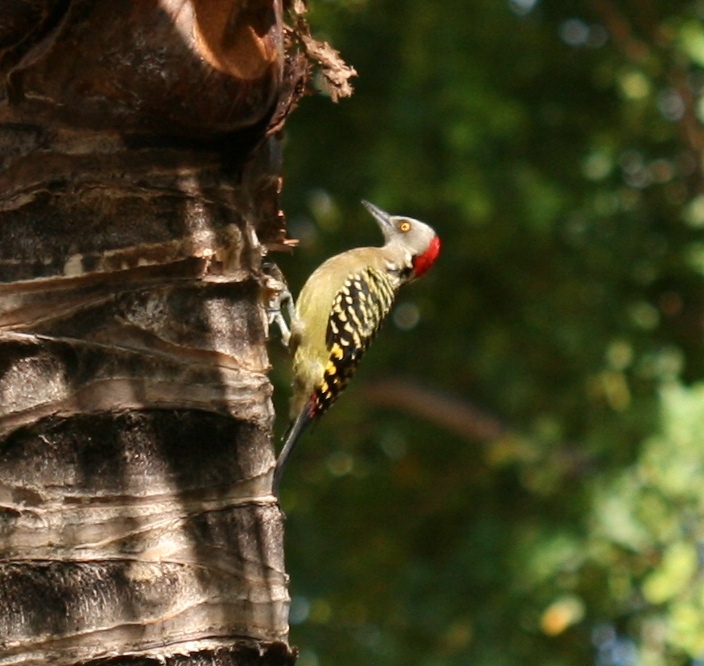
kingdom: Animalia
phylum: Chordata
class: Aves
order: Piciformes
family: Picidae
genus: Melanerpes
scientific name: Melanerpes striatus
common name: Hispaniolan woodpecker
